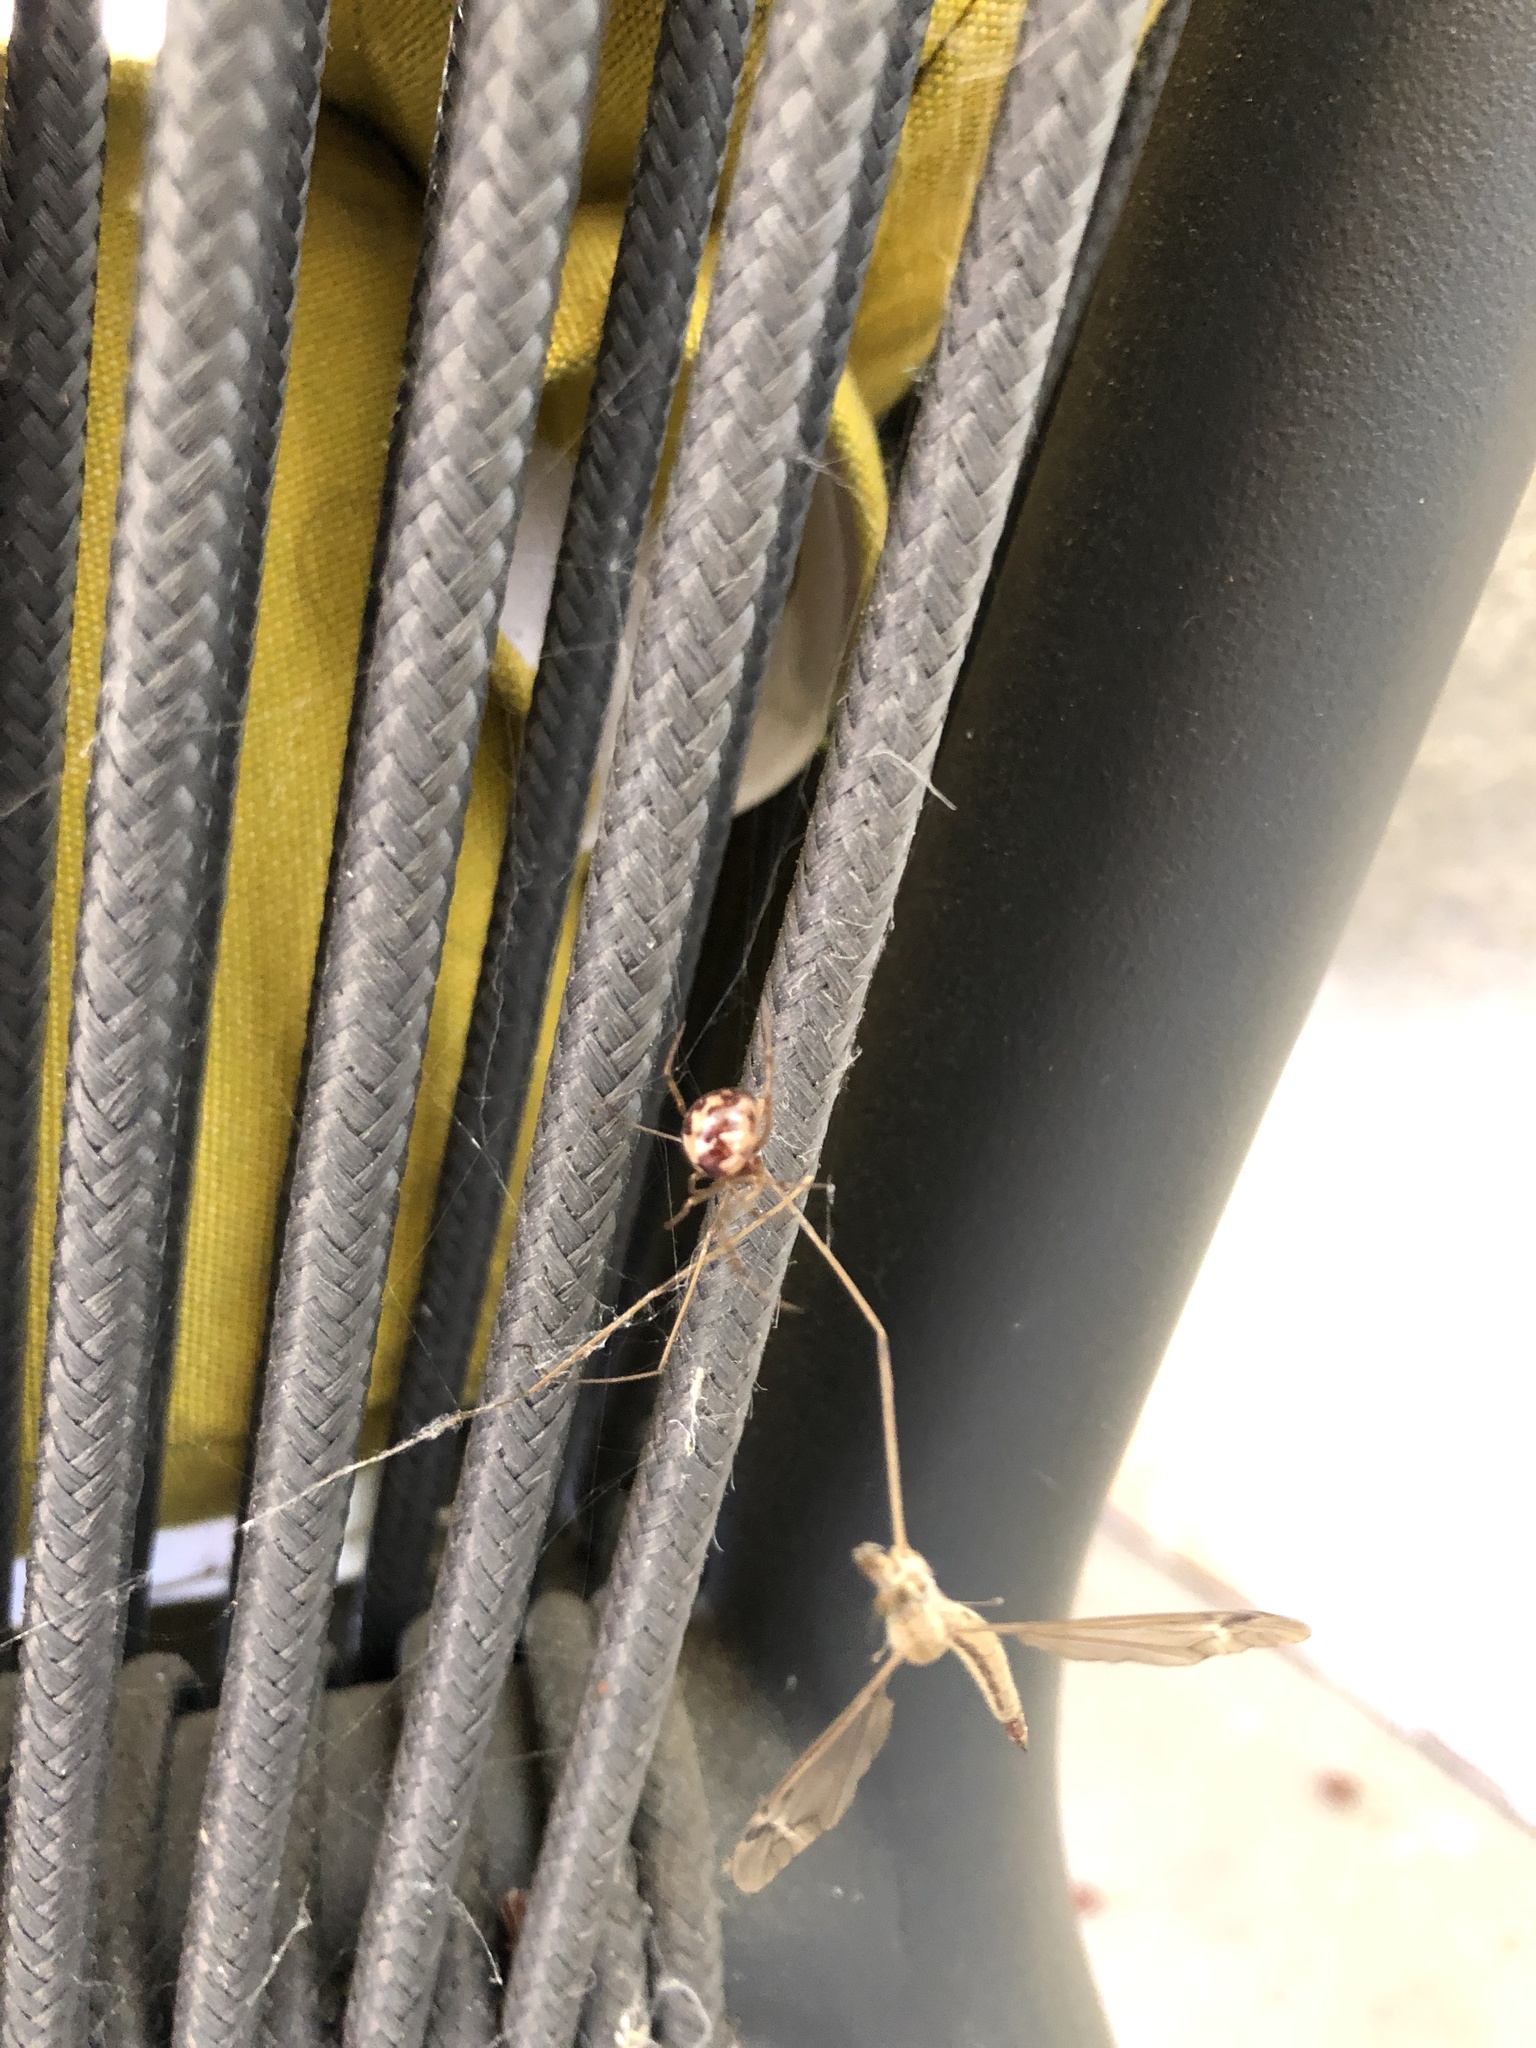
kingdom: Animalia
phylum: Arthropoda
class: Arachnida
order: Araneae
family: Theridiidae
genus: Steatoda
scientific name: Steatoda triangulosa
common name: Triangulate bud spider
